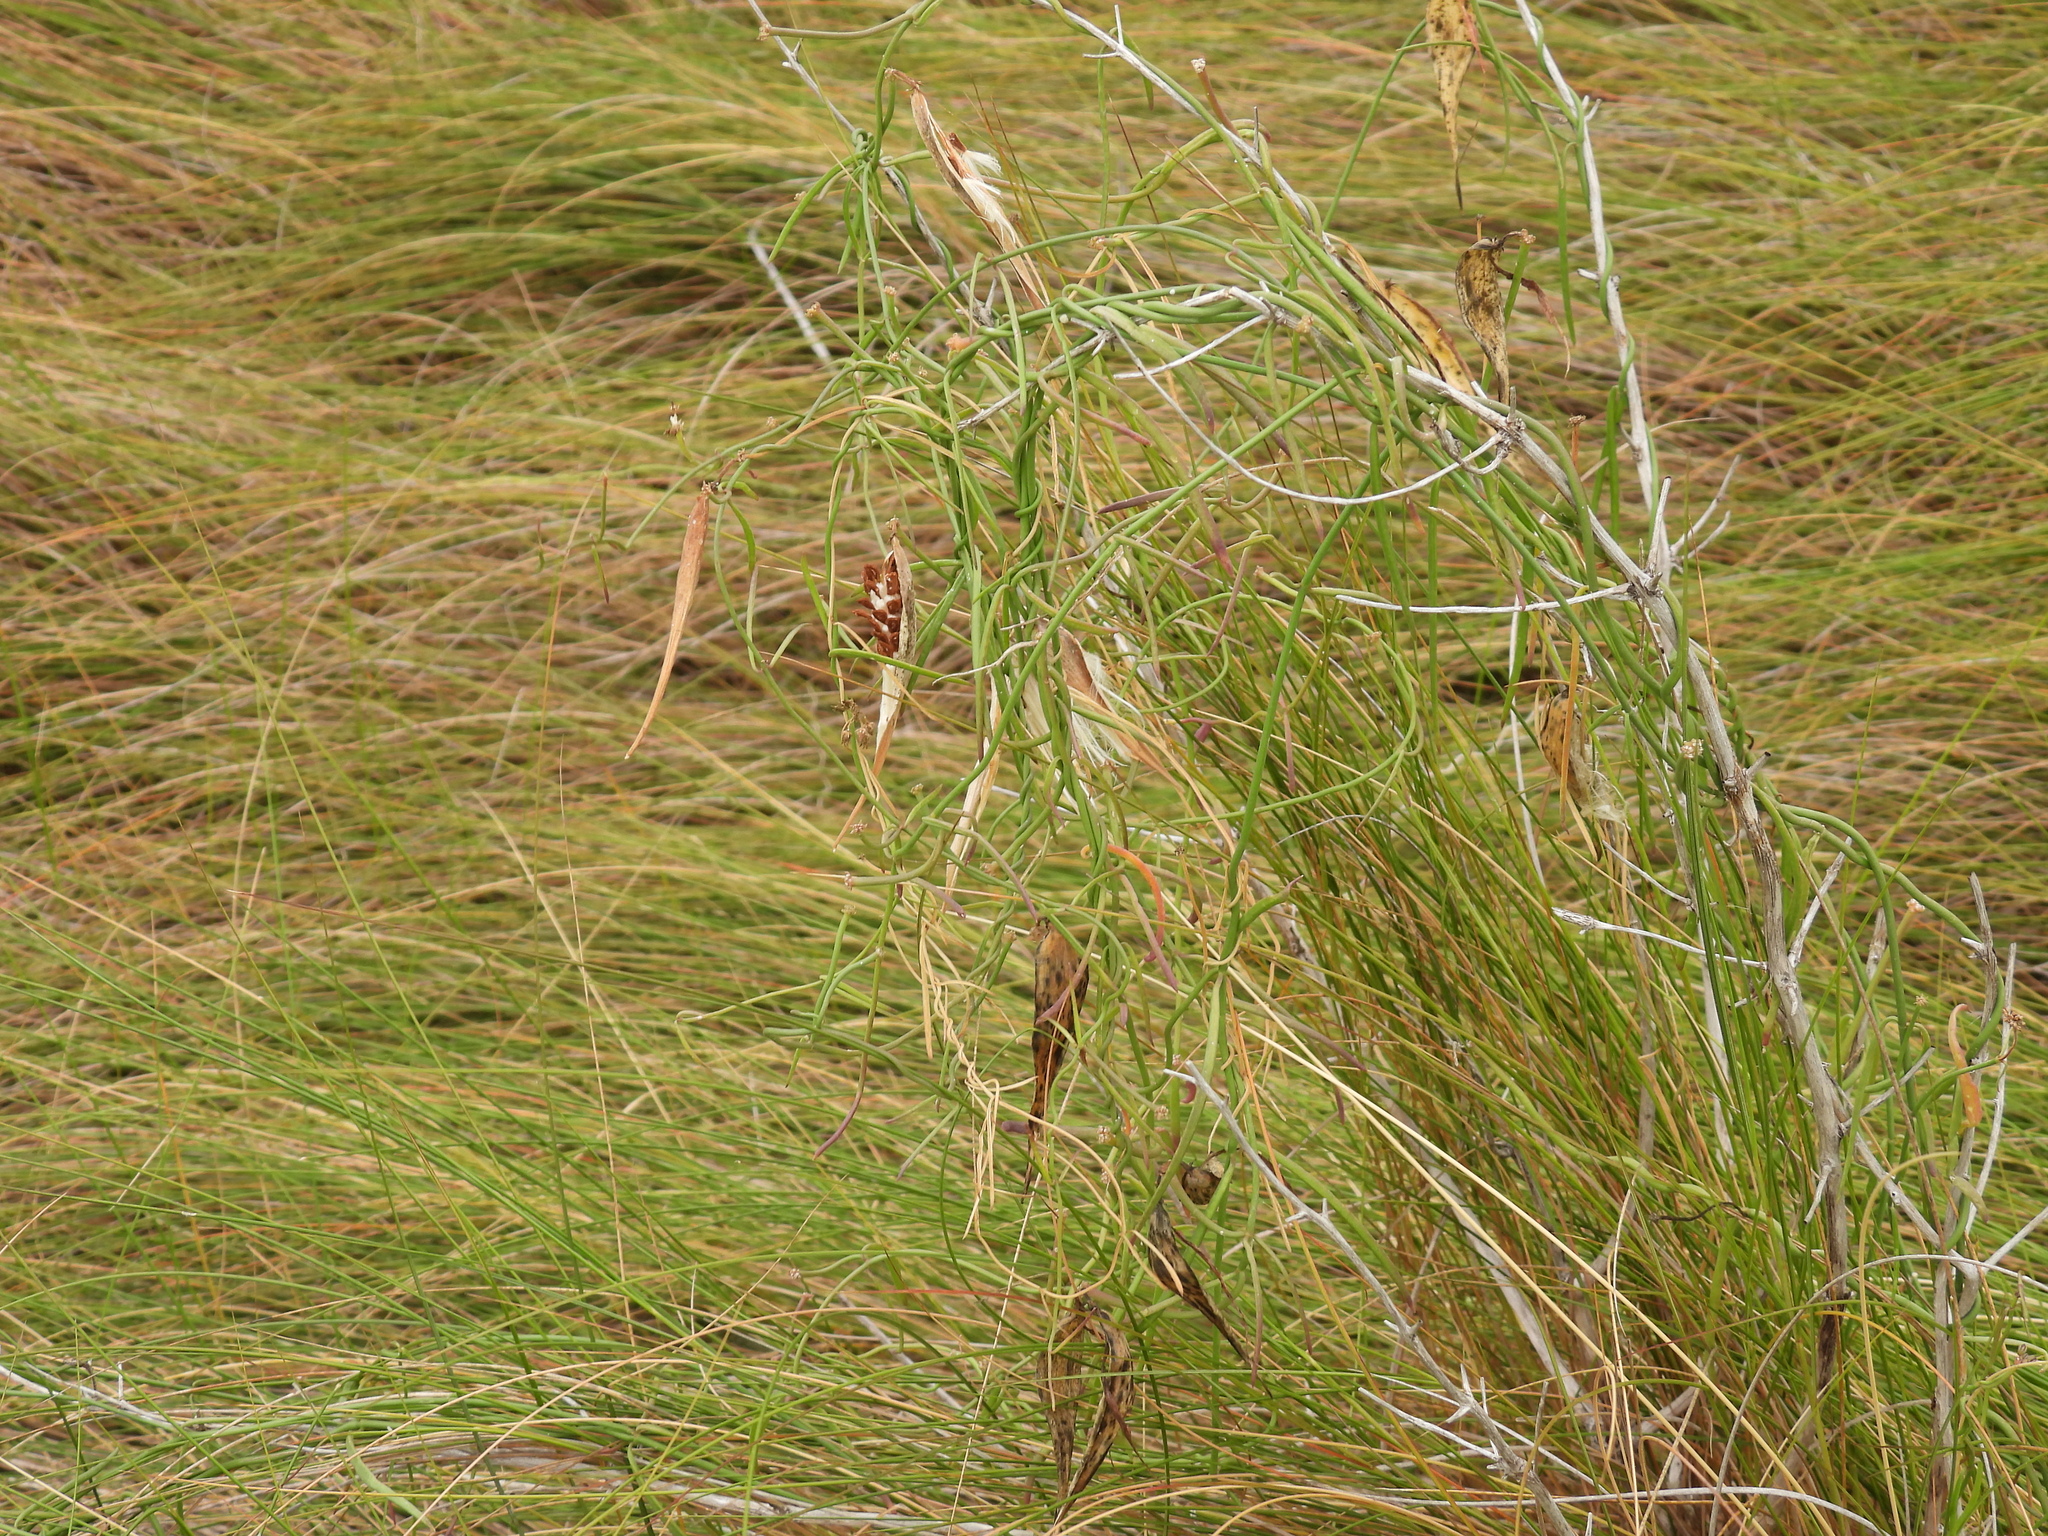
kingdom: Plantae
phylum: Tracheophyta
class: Magnoliopsida
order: Gentianales
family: Apocynaceae
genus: Pattalias
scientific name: Pattalias
